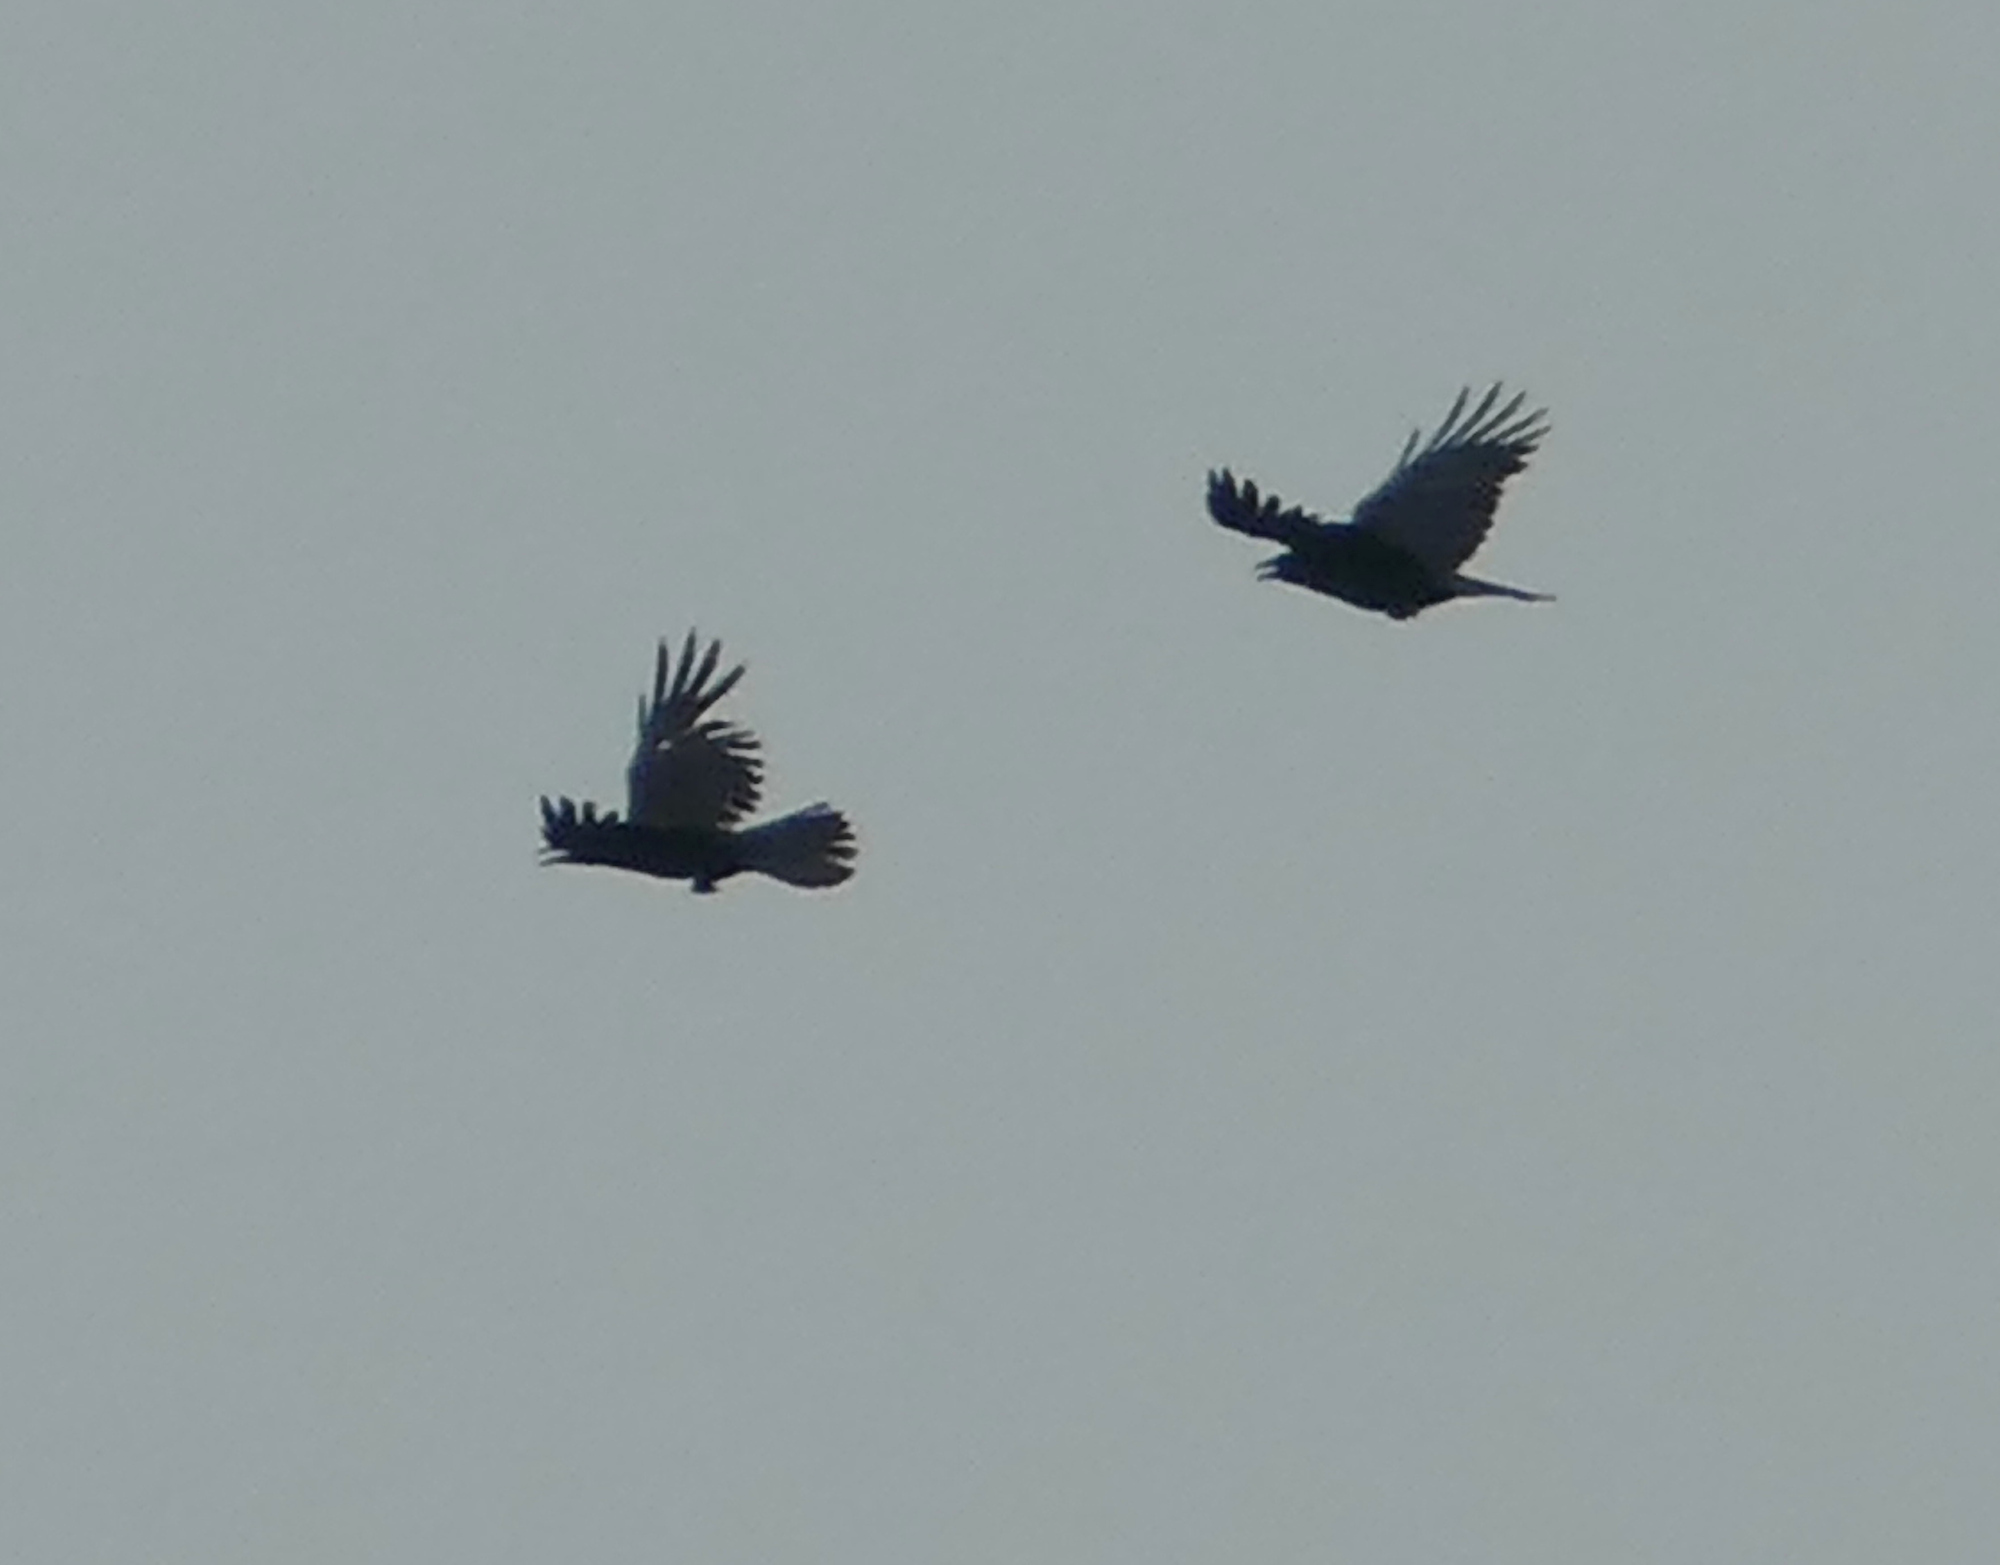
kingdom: Animalia
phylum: Chordata
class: Aves
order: Passeriformes
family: Corvidae
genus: Corvus
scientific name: Corvus brachyrhynchos
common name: American crow
